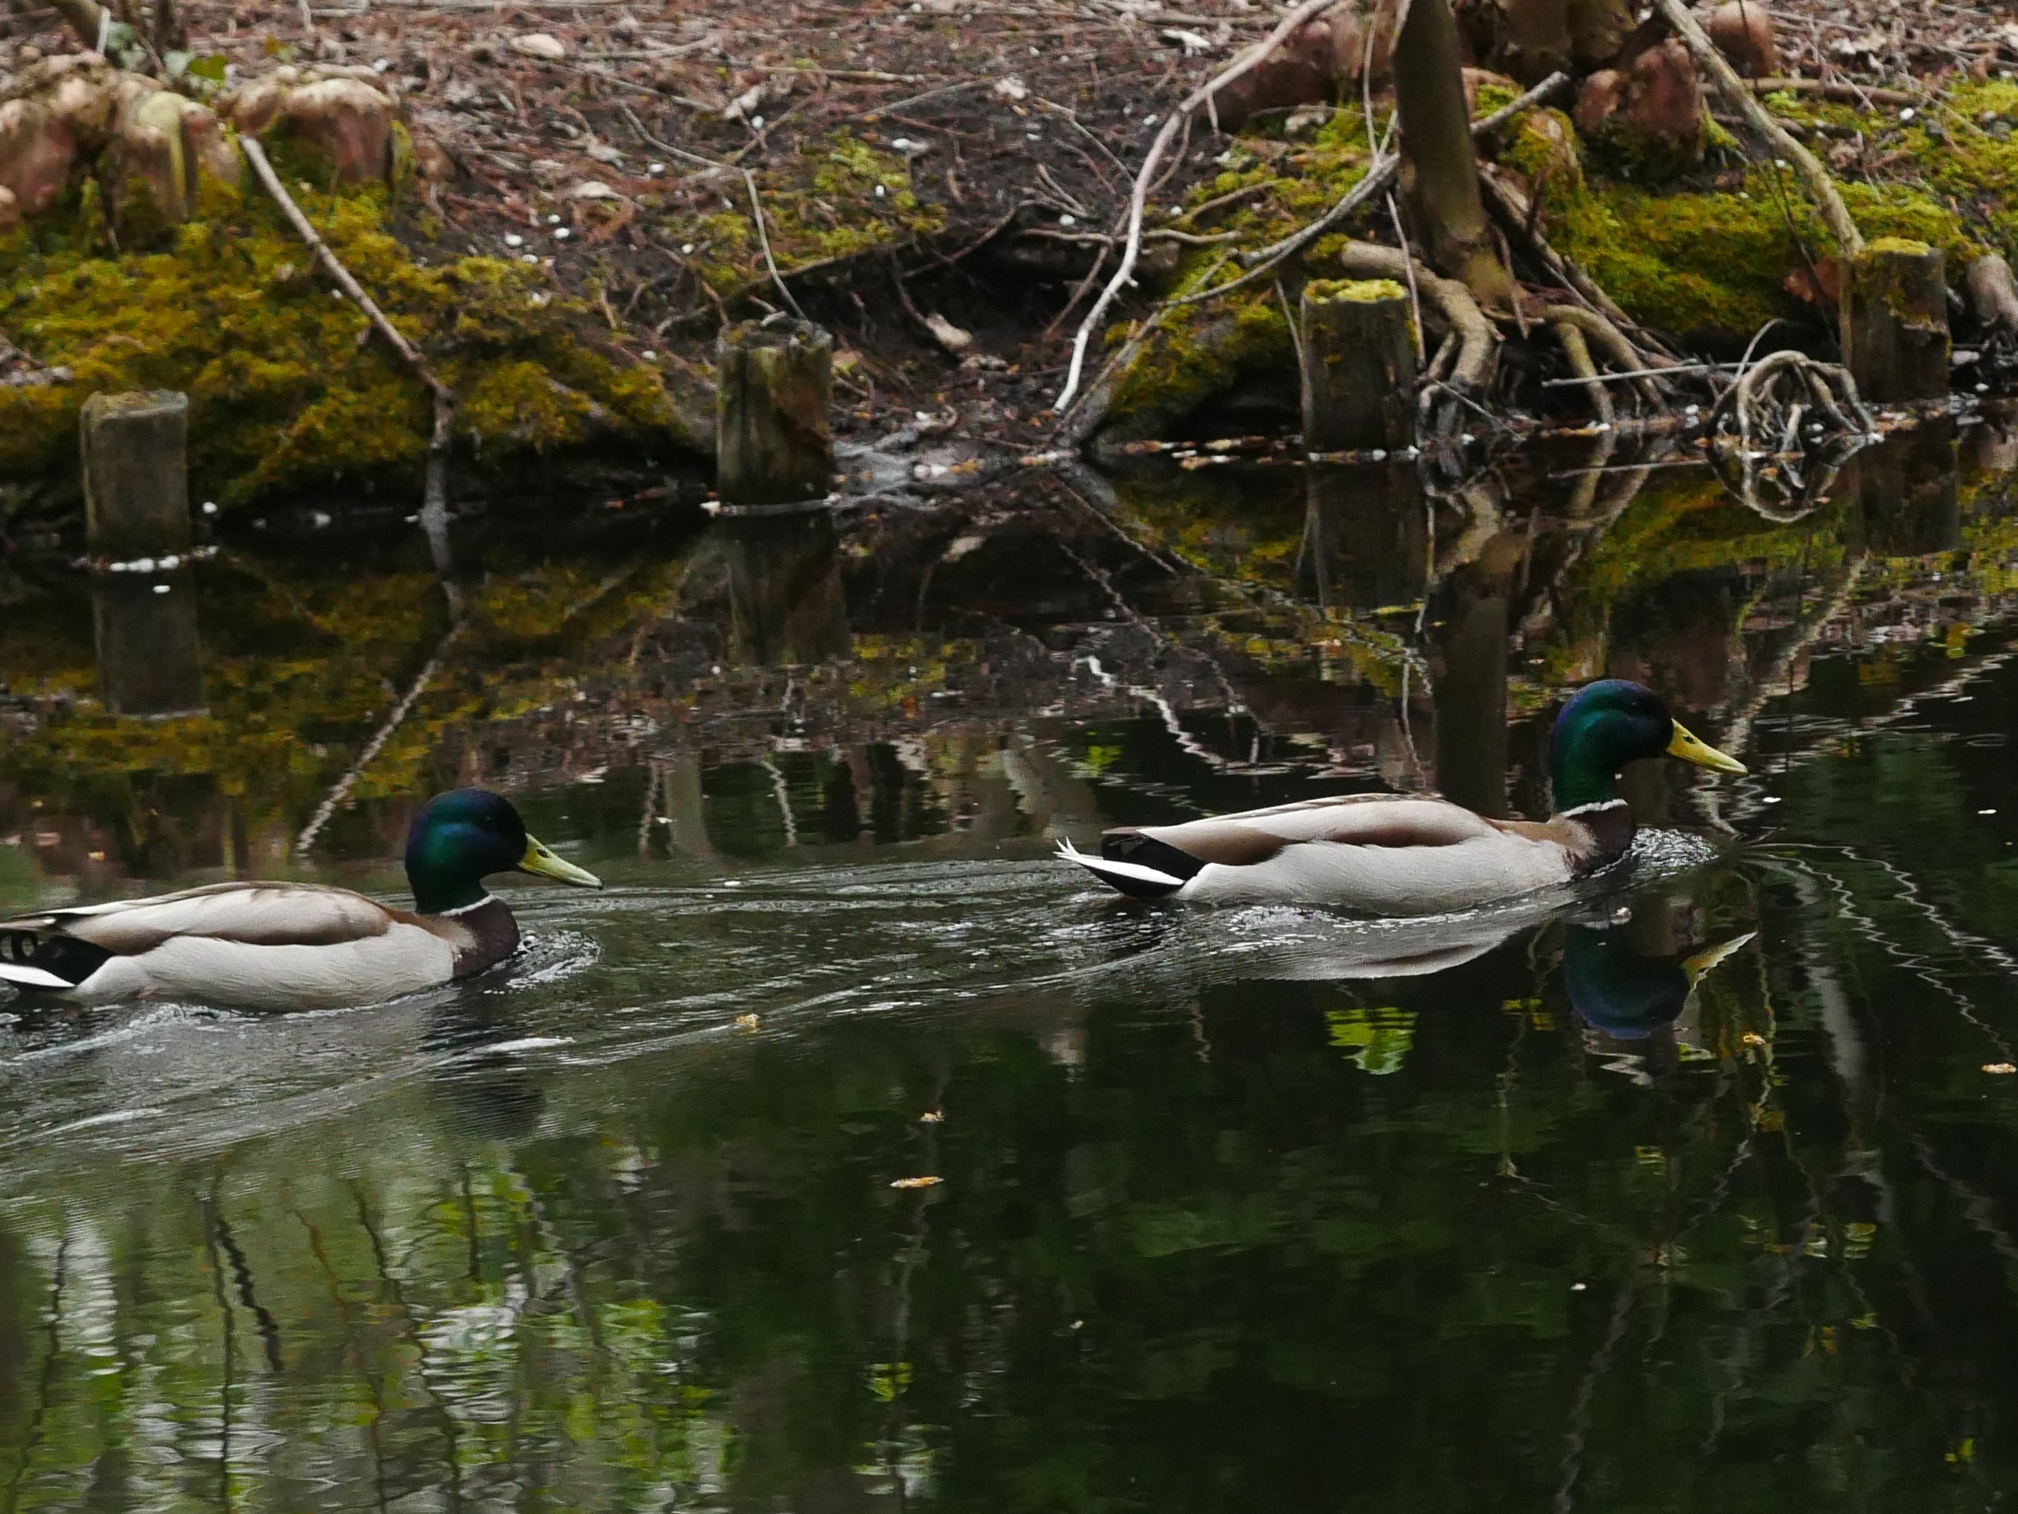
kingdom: Animalia
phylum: Chordata
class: Aves
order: Anseriformes
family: Anatidae
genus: Anas
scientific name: Anas platyrhynchos
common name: Mallard
